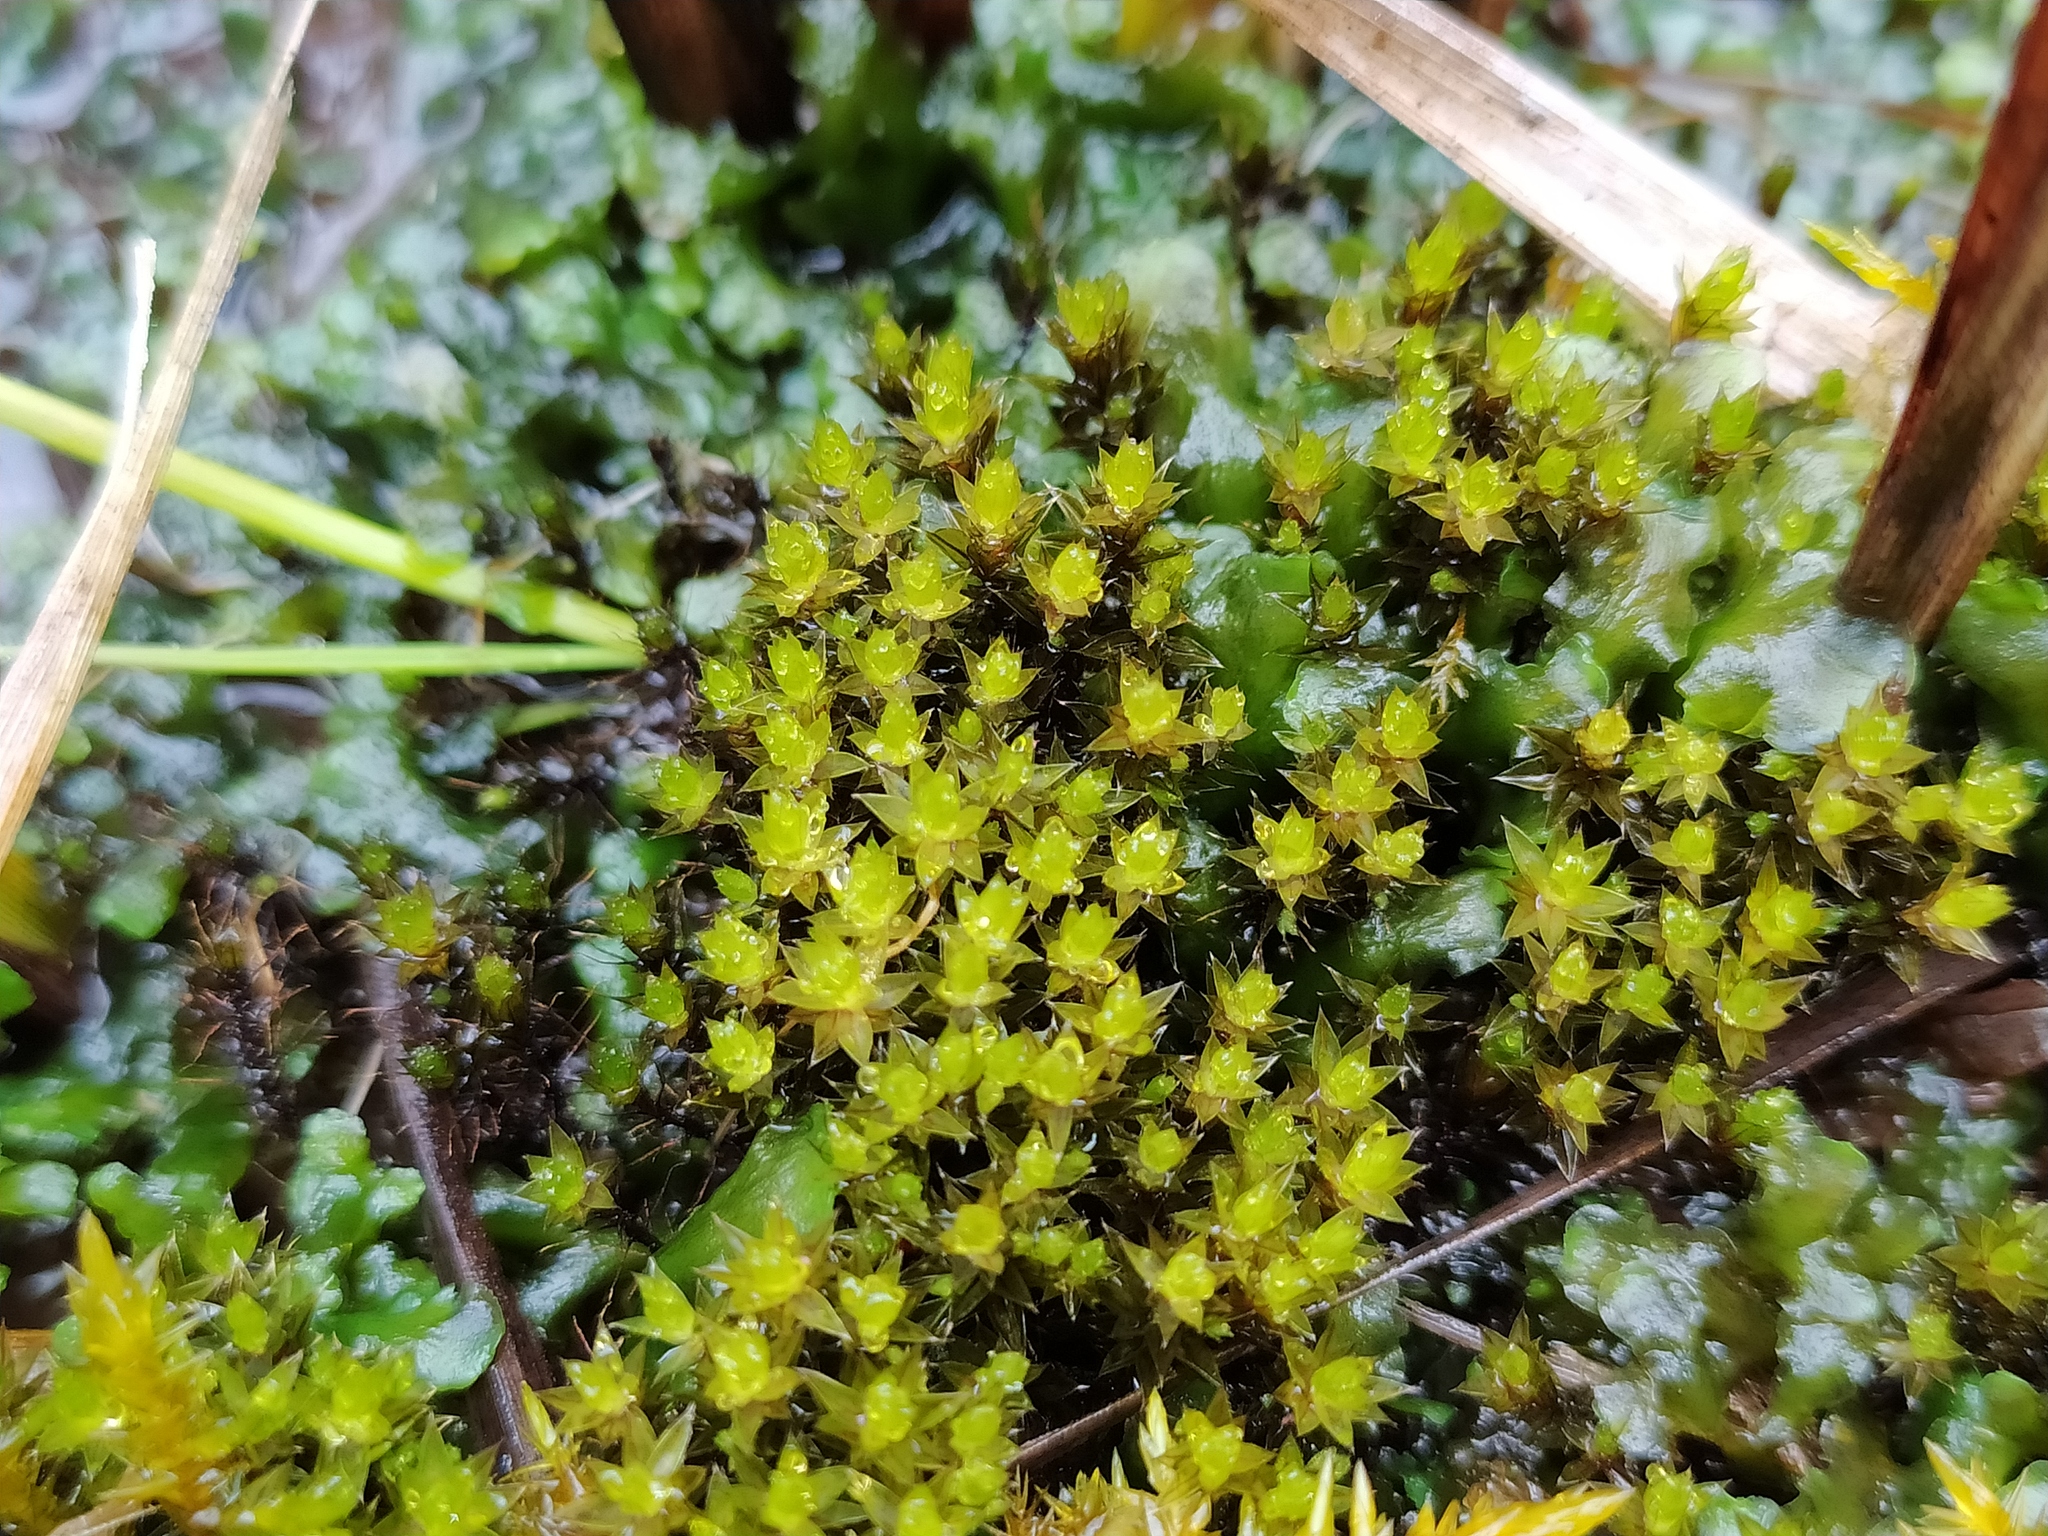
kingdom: Plantae
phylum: Bryophyta
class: Bryopsida
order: Bryales
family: Bryaceae
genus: Ptychostomum
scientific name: Ptychostomum pseudotriquetrum
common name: Long-leaved thread moss
